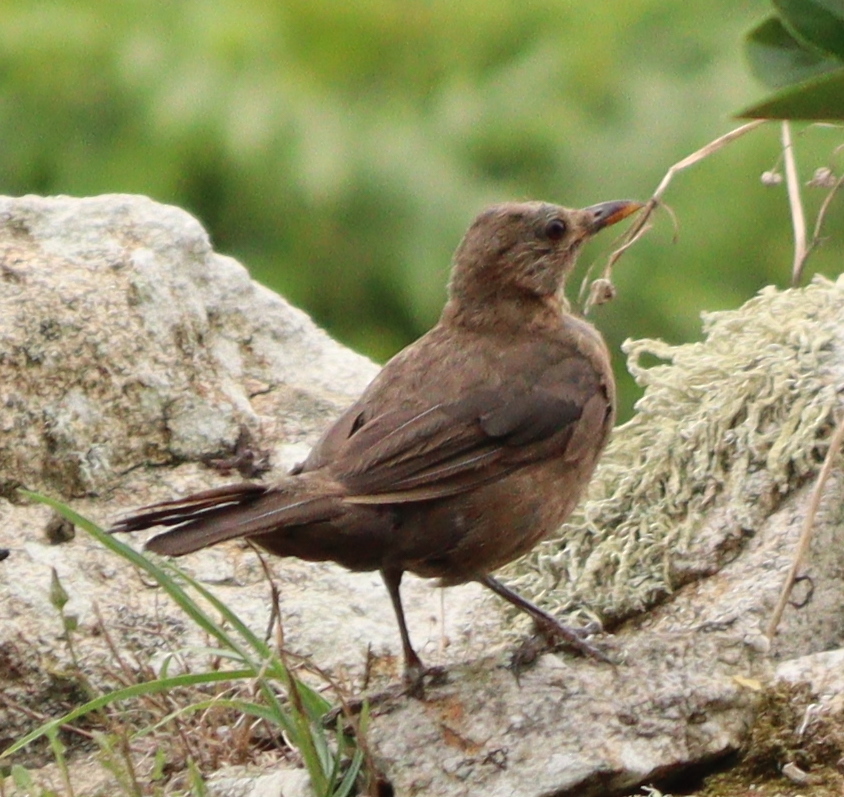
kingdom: Animalia
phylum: Chordata
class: Aves
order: Passeriformes
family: Turdidae
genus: Turdus
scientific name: Turdus merula
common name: Common blackbird
